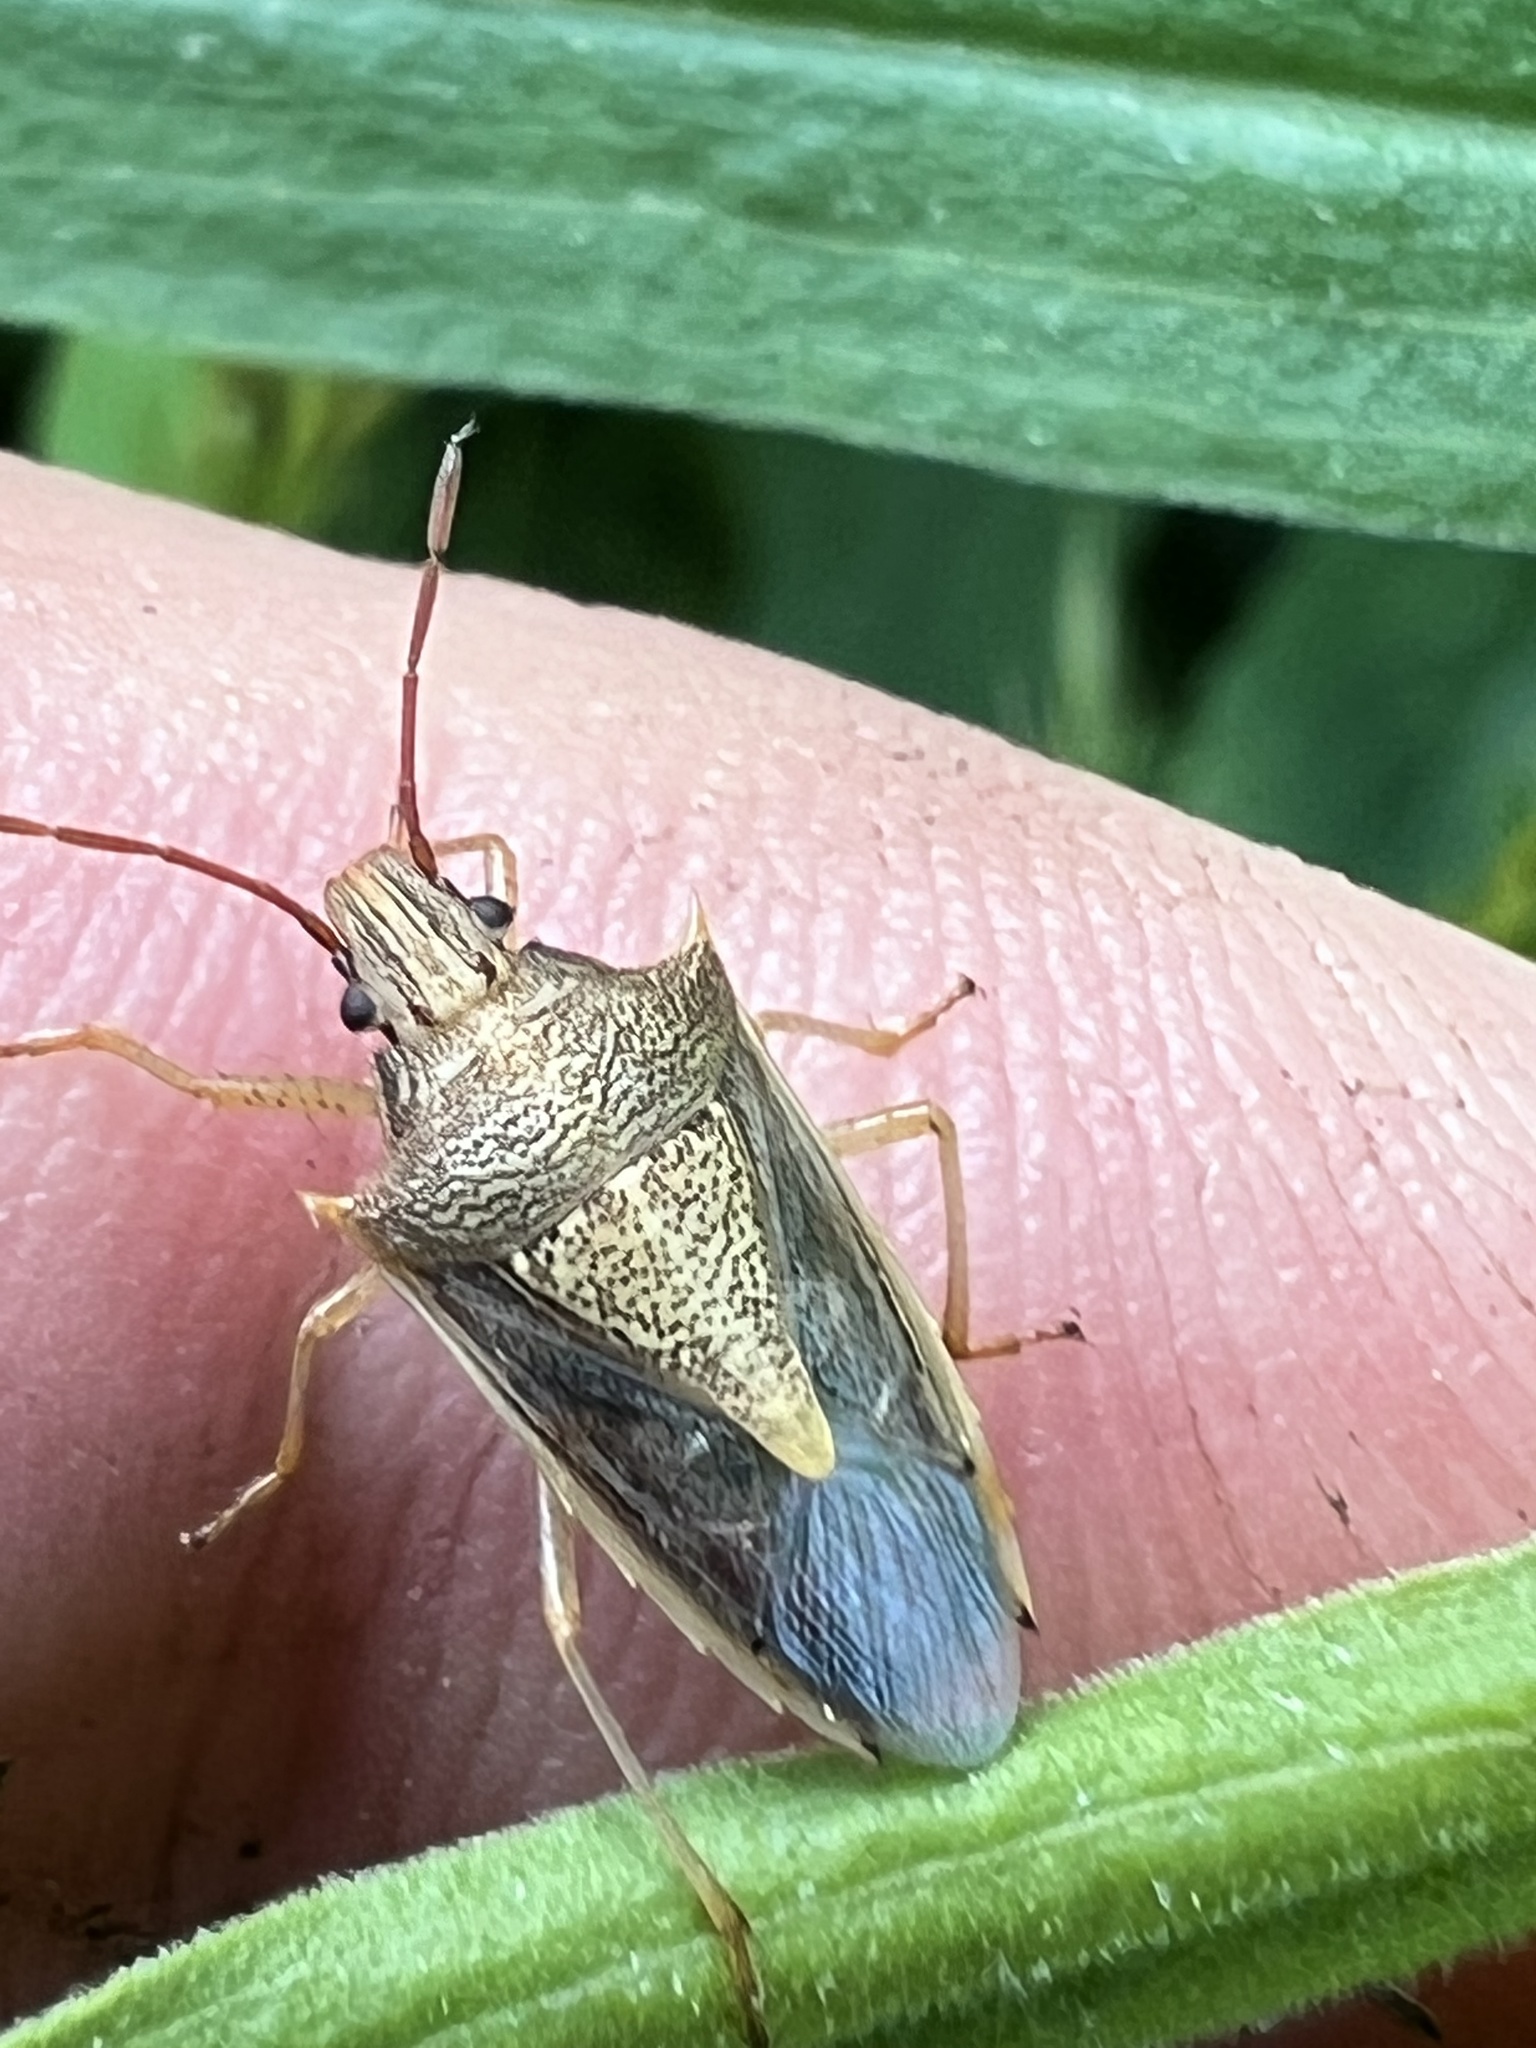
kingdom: Animalia
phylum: Arthropoda
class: Insecta
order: Hemiptera
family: Pentatomidae
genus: Oebalus
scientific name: Oebalus pugnax
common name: Rice stink bug
